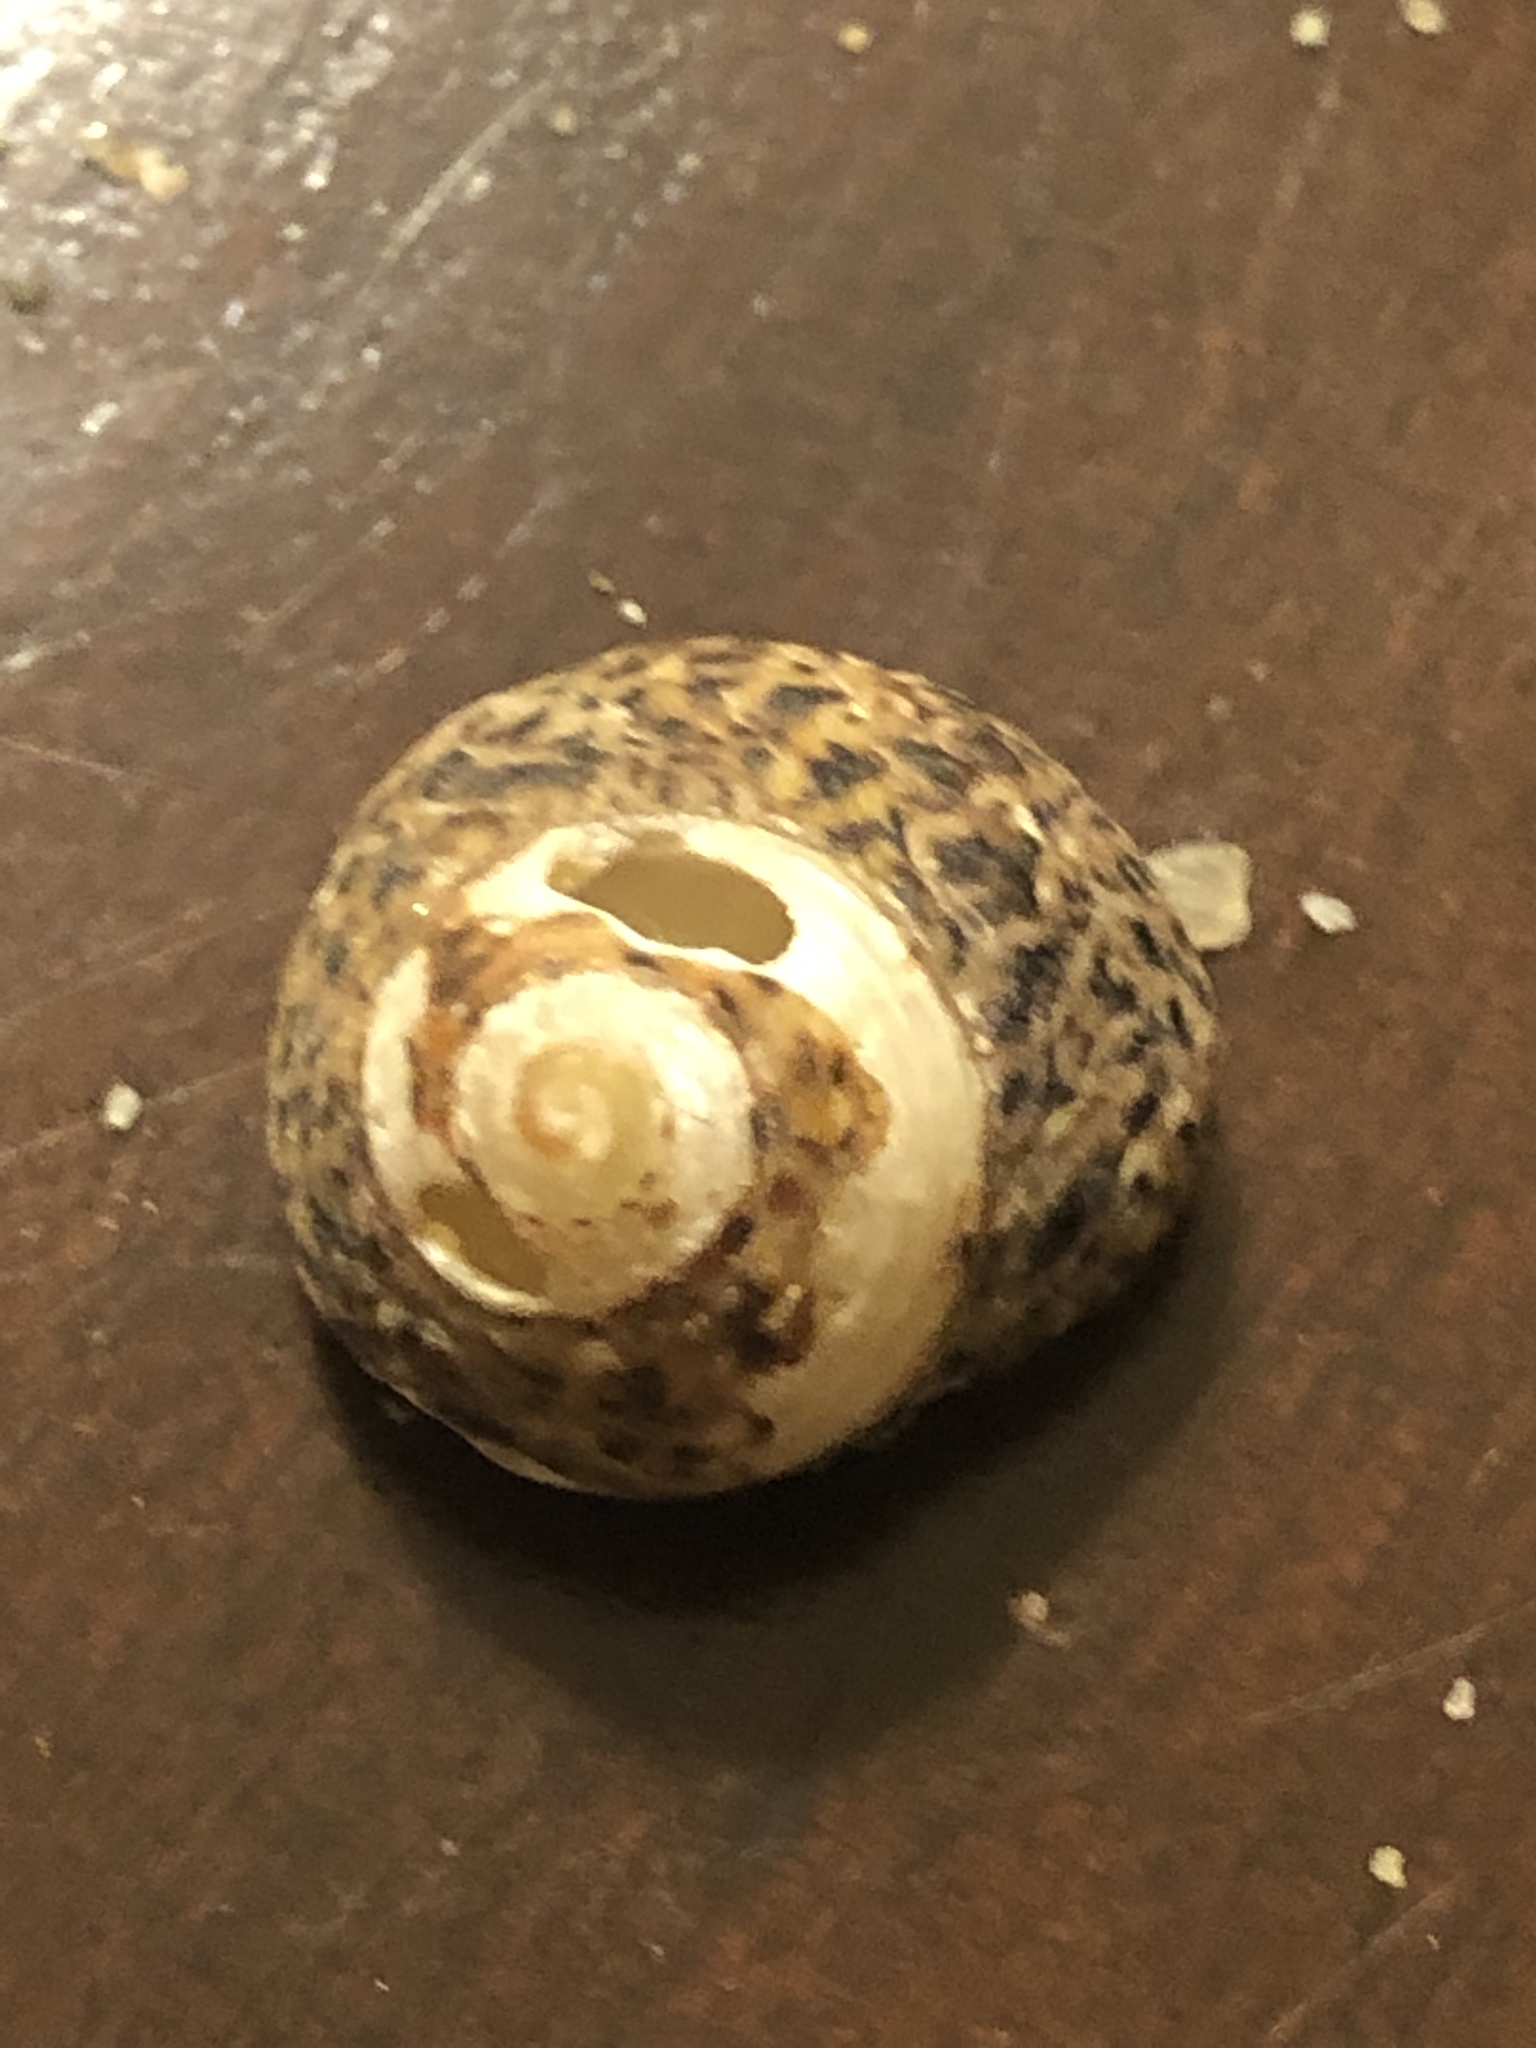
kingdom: Animalia
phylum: Mollusca
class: Gastropoda
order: Trochida
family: Tegulidae
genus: Tegula
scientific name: Tegula eiseni
